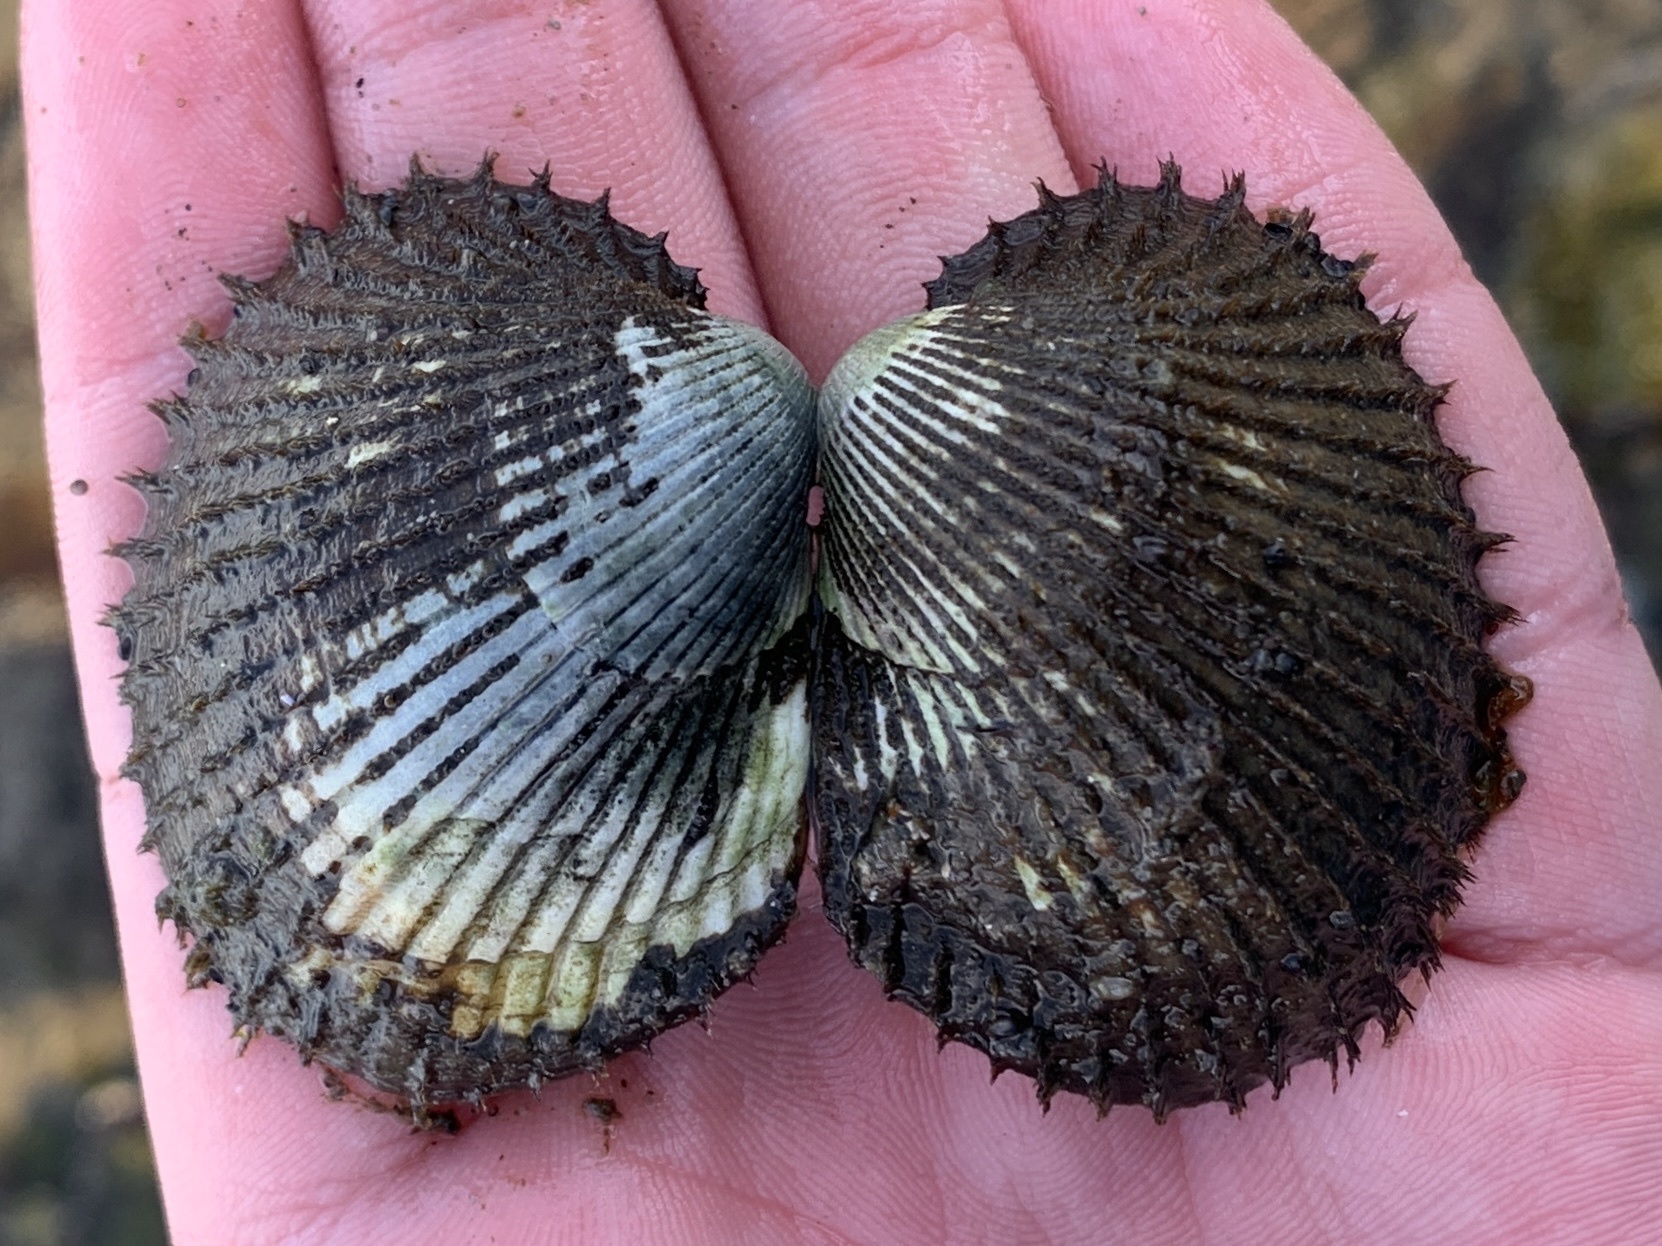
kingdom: Animalia
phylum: Mollusca
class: Bivalvia
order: Arcida
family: Arcidae
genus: Lunarca
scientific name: Lunarca ovalis
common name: Blood ark
